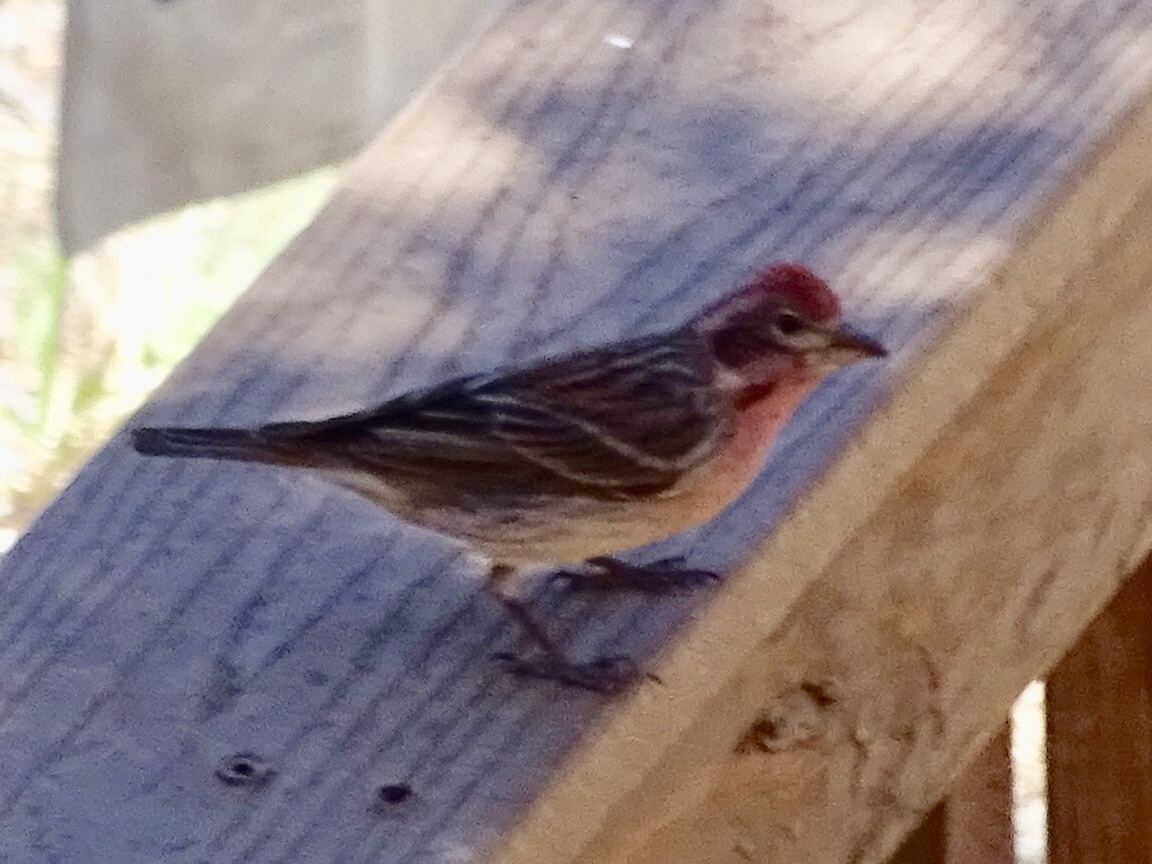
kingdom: Animalia
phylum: Chordata
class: Aves
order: Passeriformes
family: Fringillidae
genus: Haemorhous
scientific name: Haemorhous cassinii
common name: Cassin's finch
